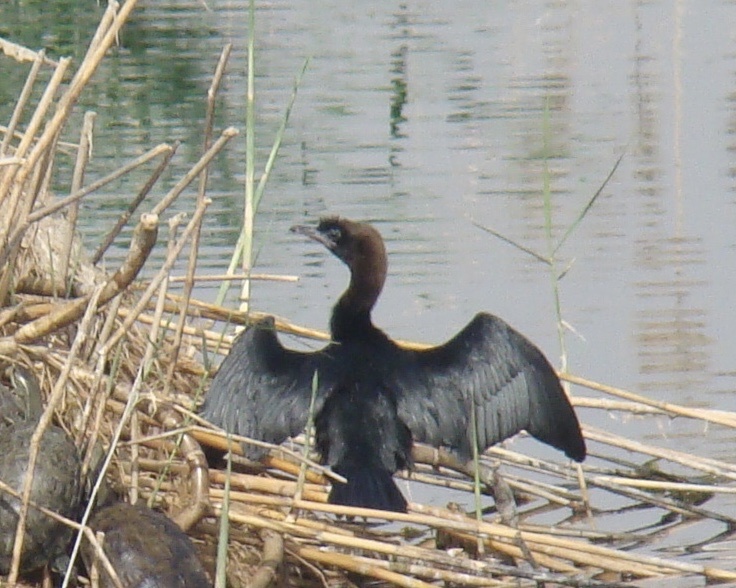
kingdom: Animalia
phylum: Chordata
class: Aves
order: Suliformes
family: Phalacrocoracidae
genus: Microcarbo
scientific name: Microcarbo pygmaeus
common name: Pygmy cormorant
